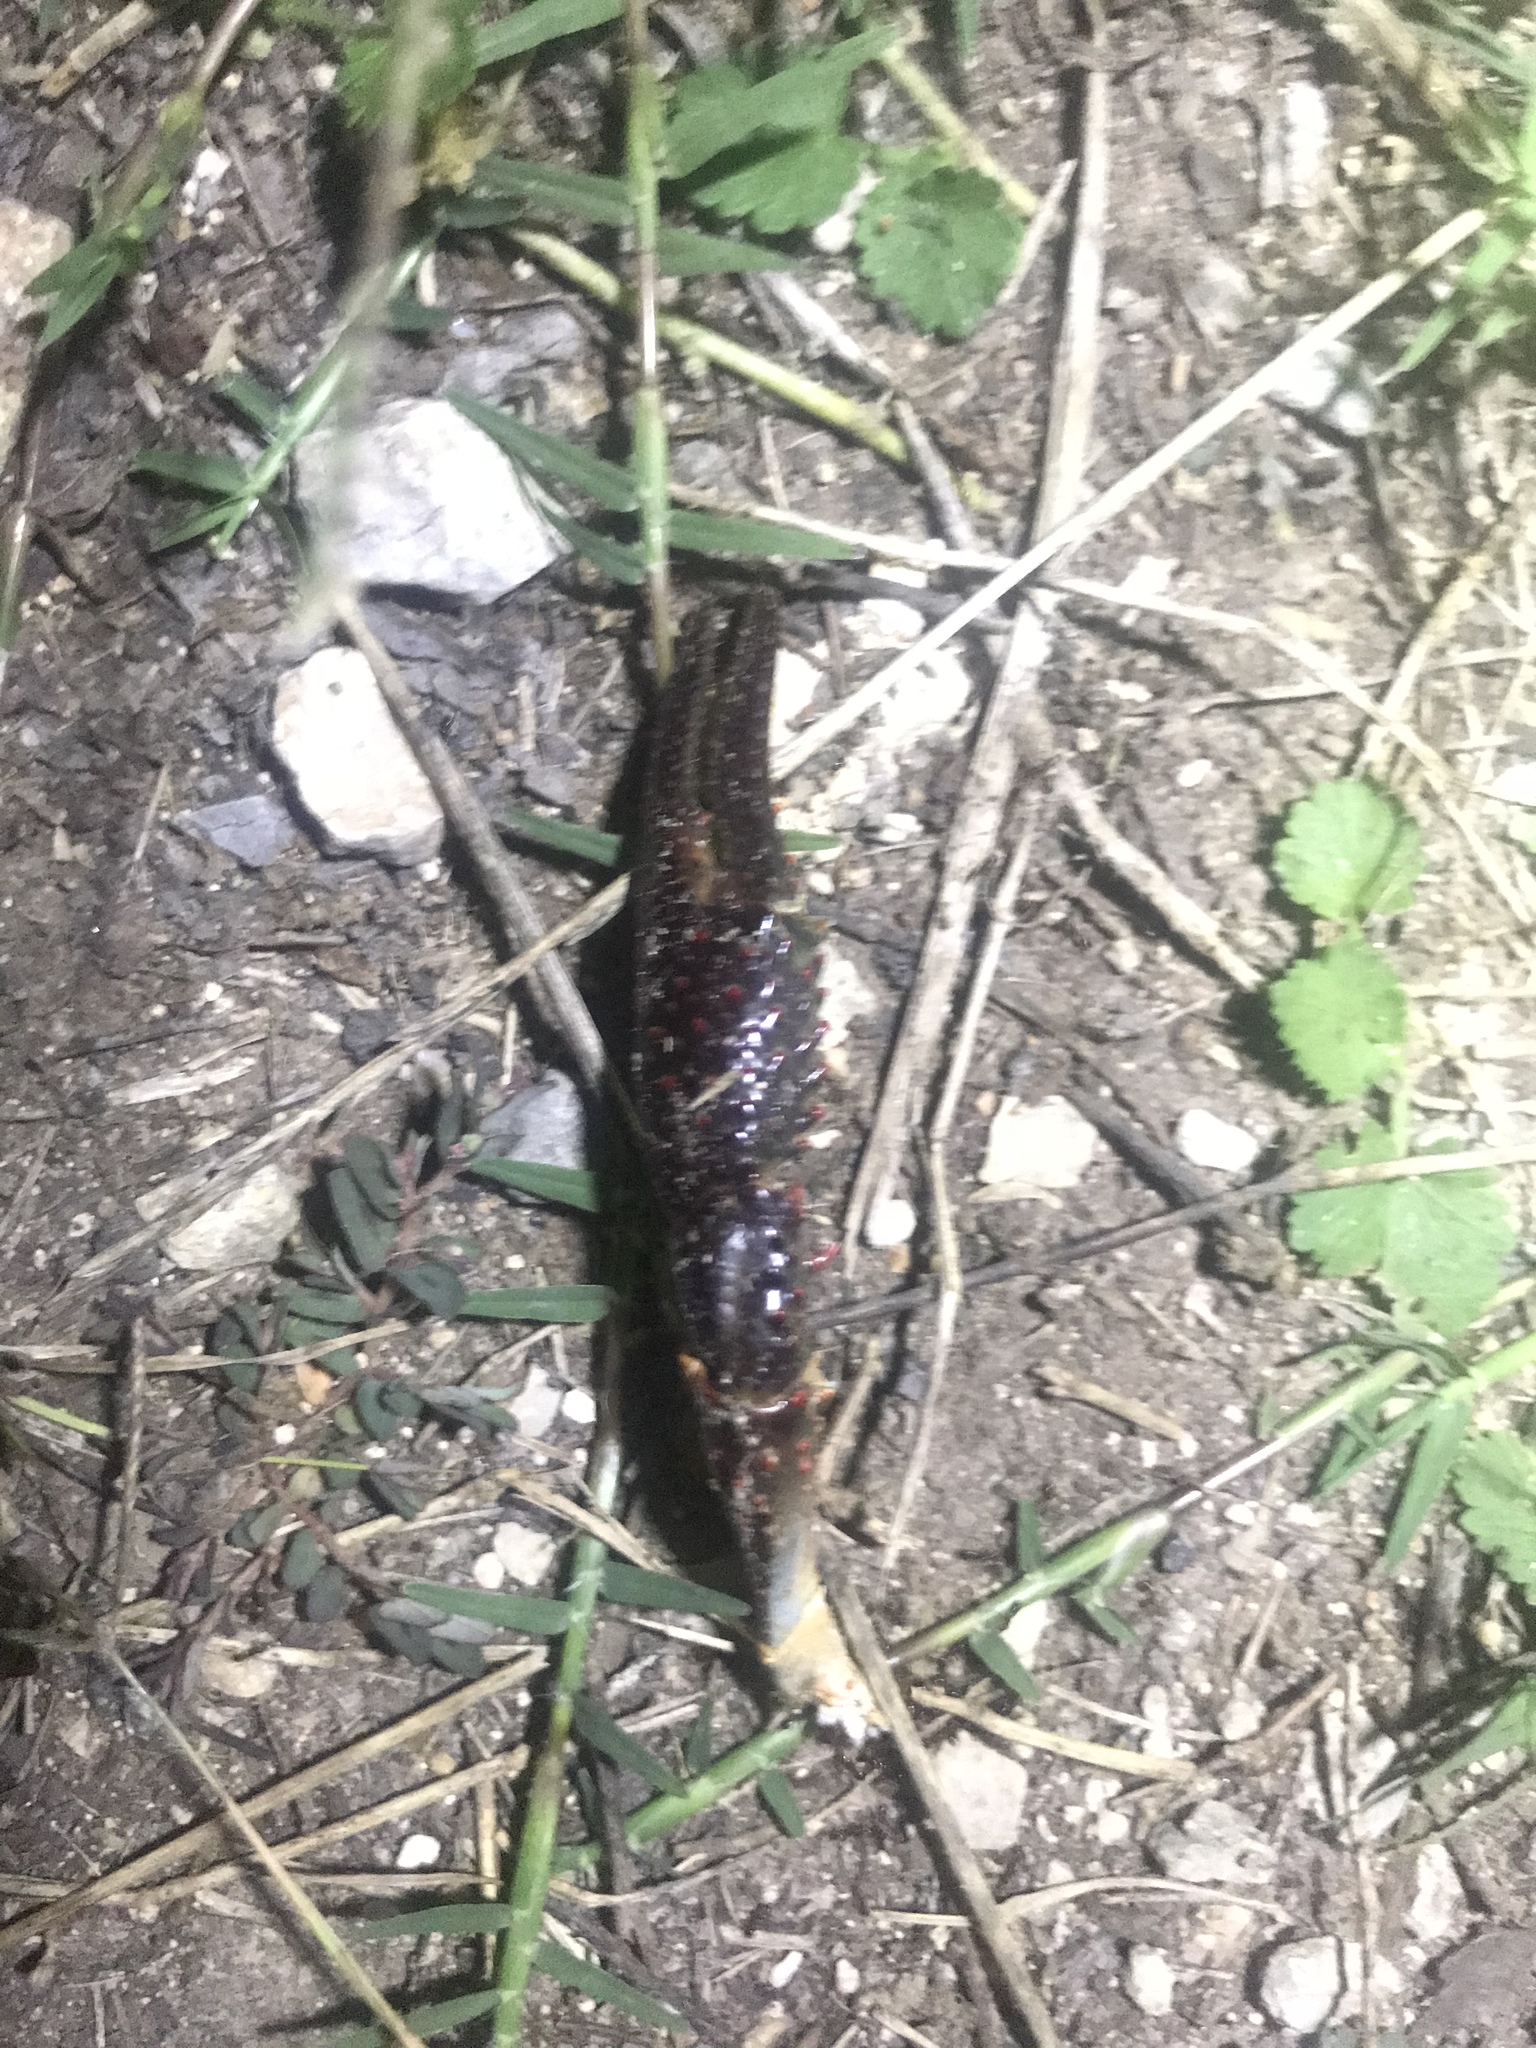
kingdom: Animalia
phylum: Arthropoda
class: Malacostraca
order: Decapoda
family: Cambaridae
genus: Procambarus
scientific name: Procambarus clarkii
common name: Red swamp crayfish
